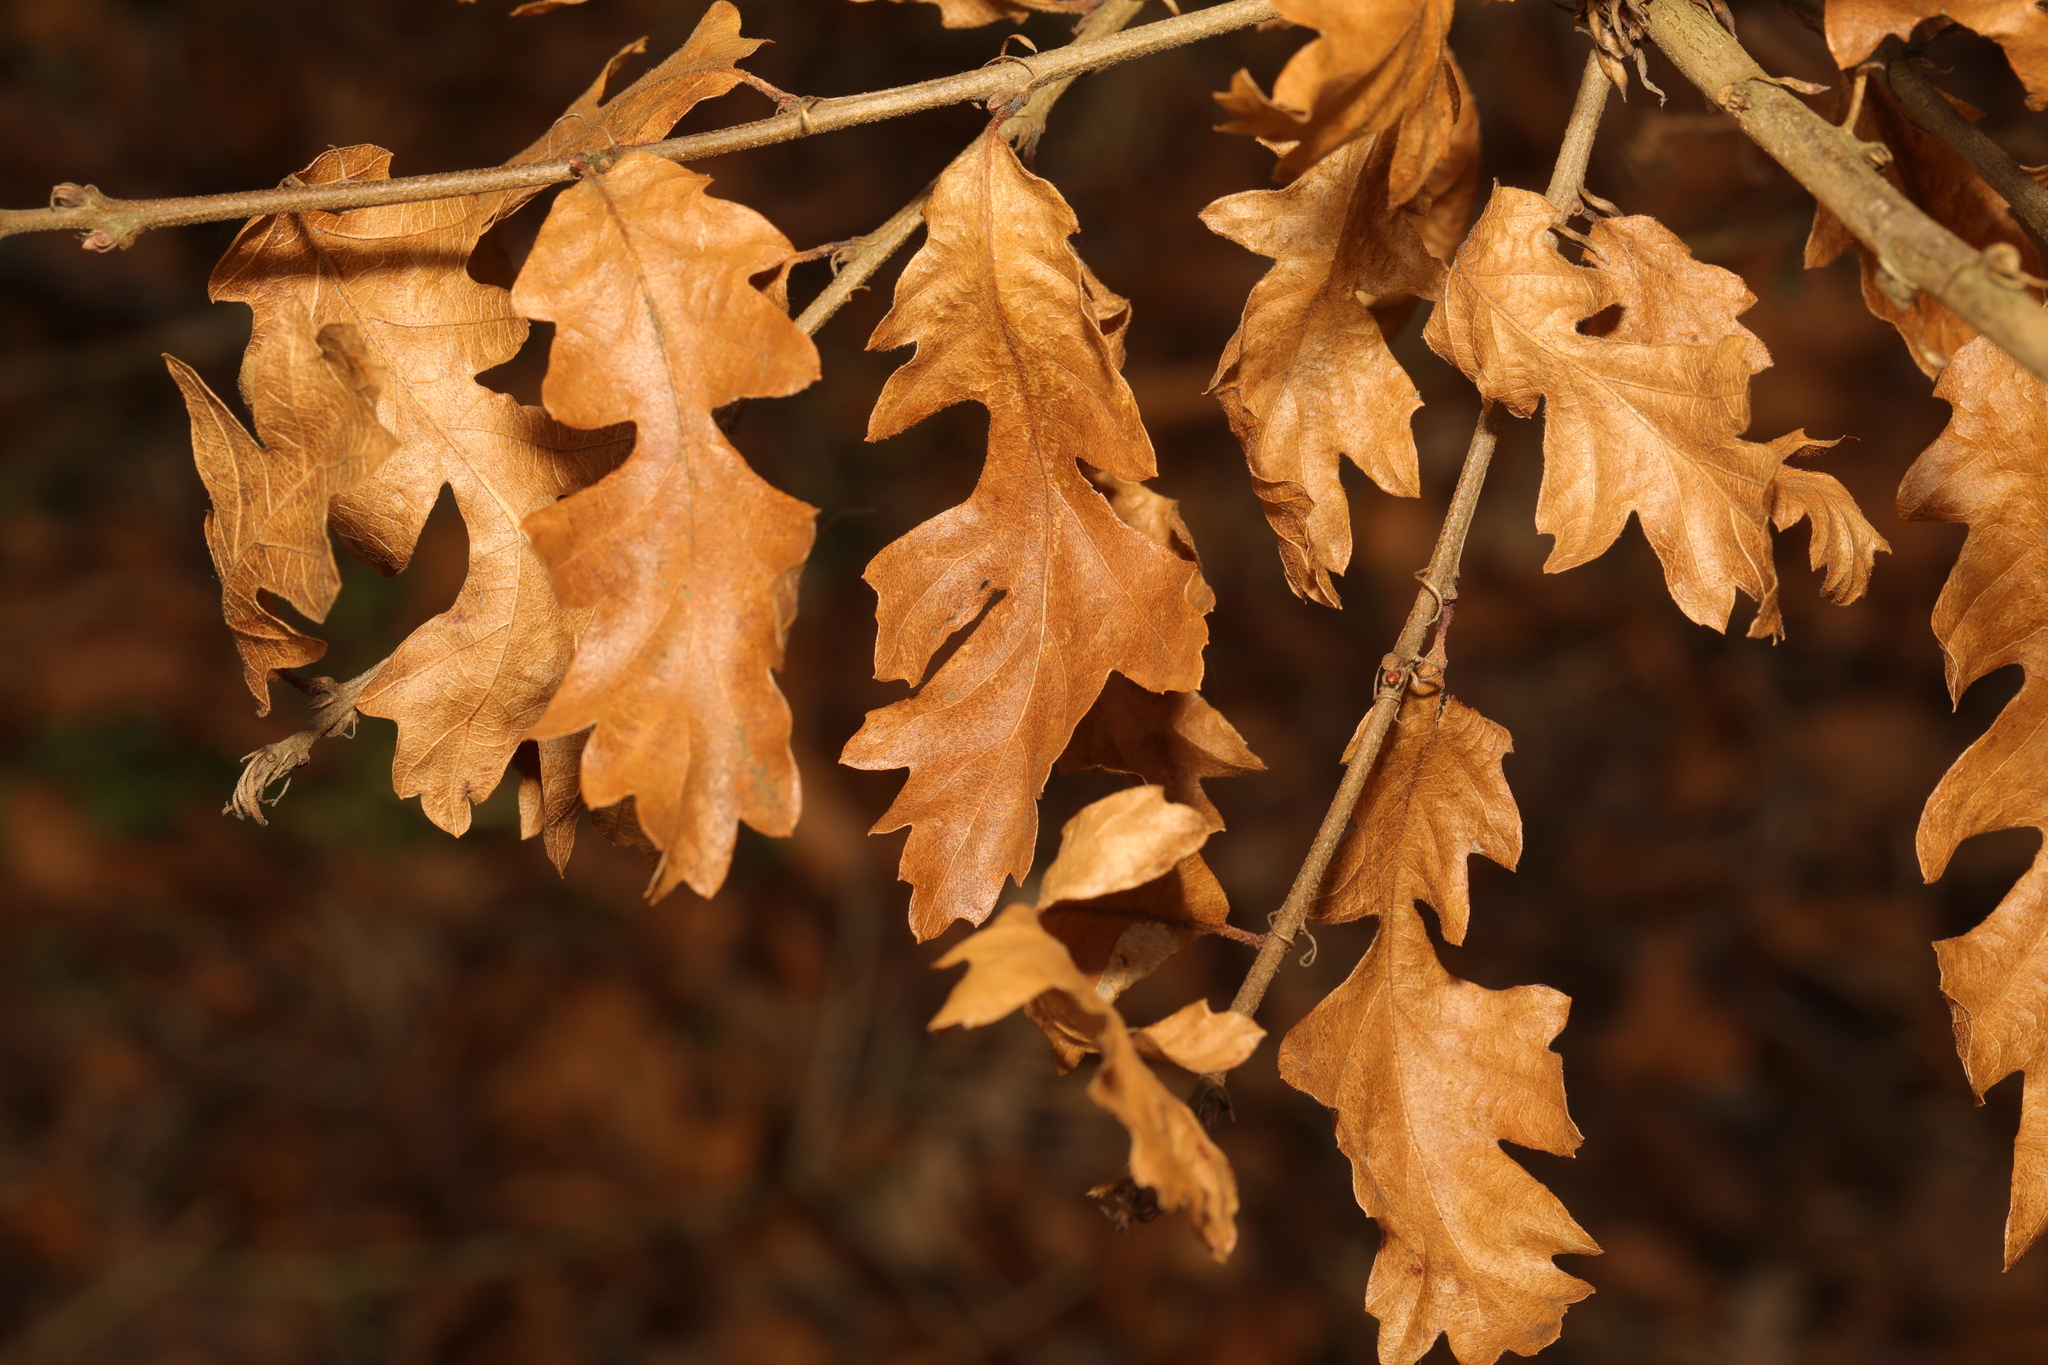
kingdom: Plantae
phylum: Tracheophyta
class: Magnoliopsida
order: Fagales
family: Fagaceae
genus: Quercus
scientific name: Quercus cerris
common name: Turkey oak
